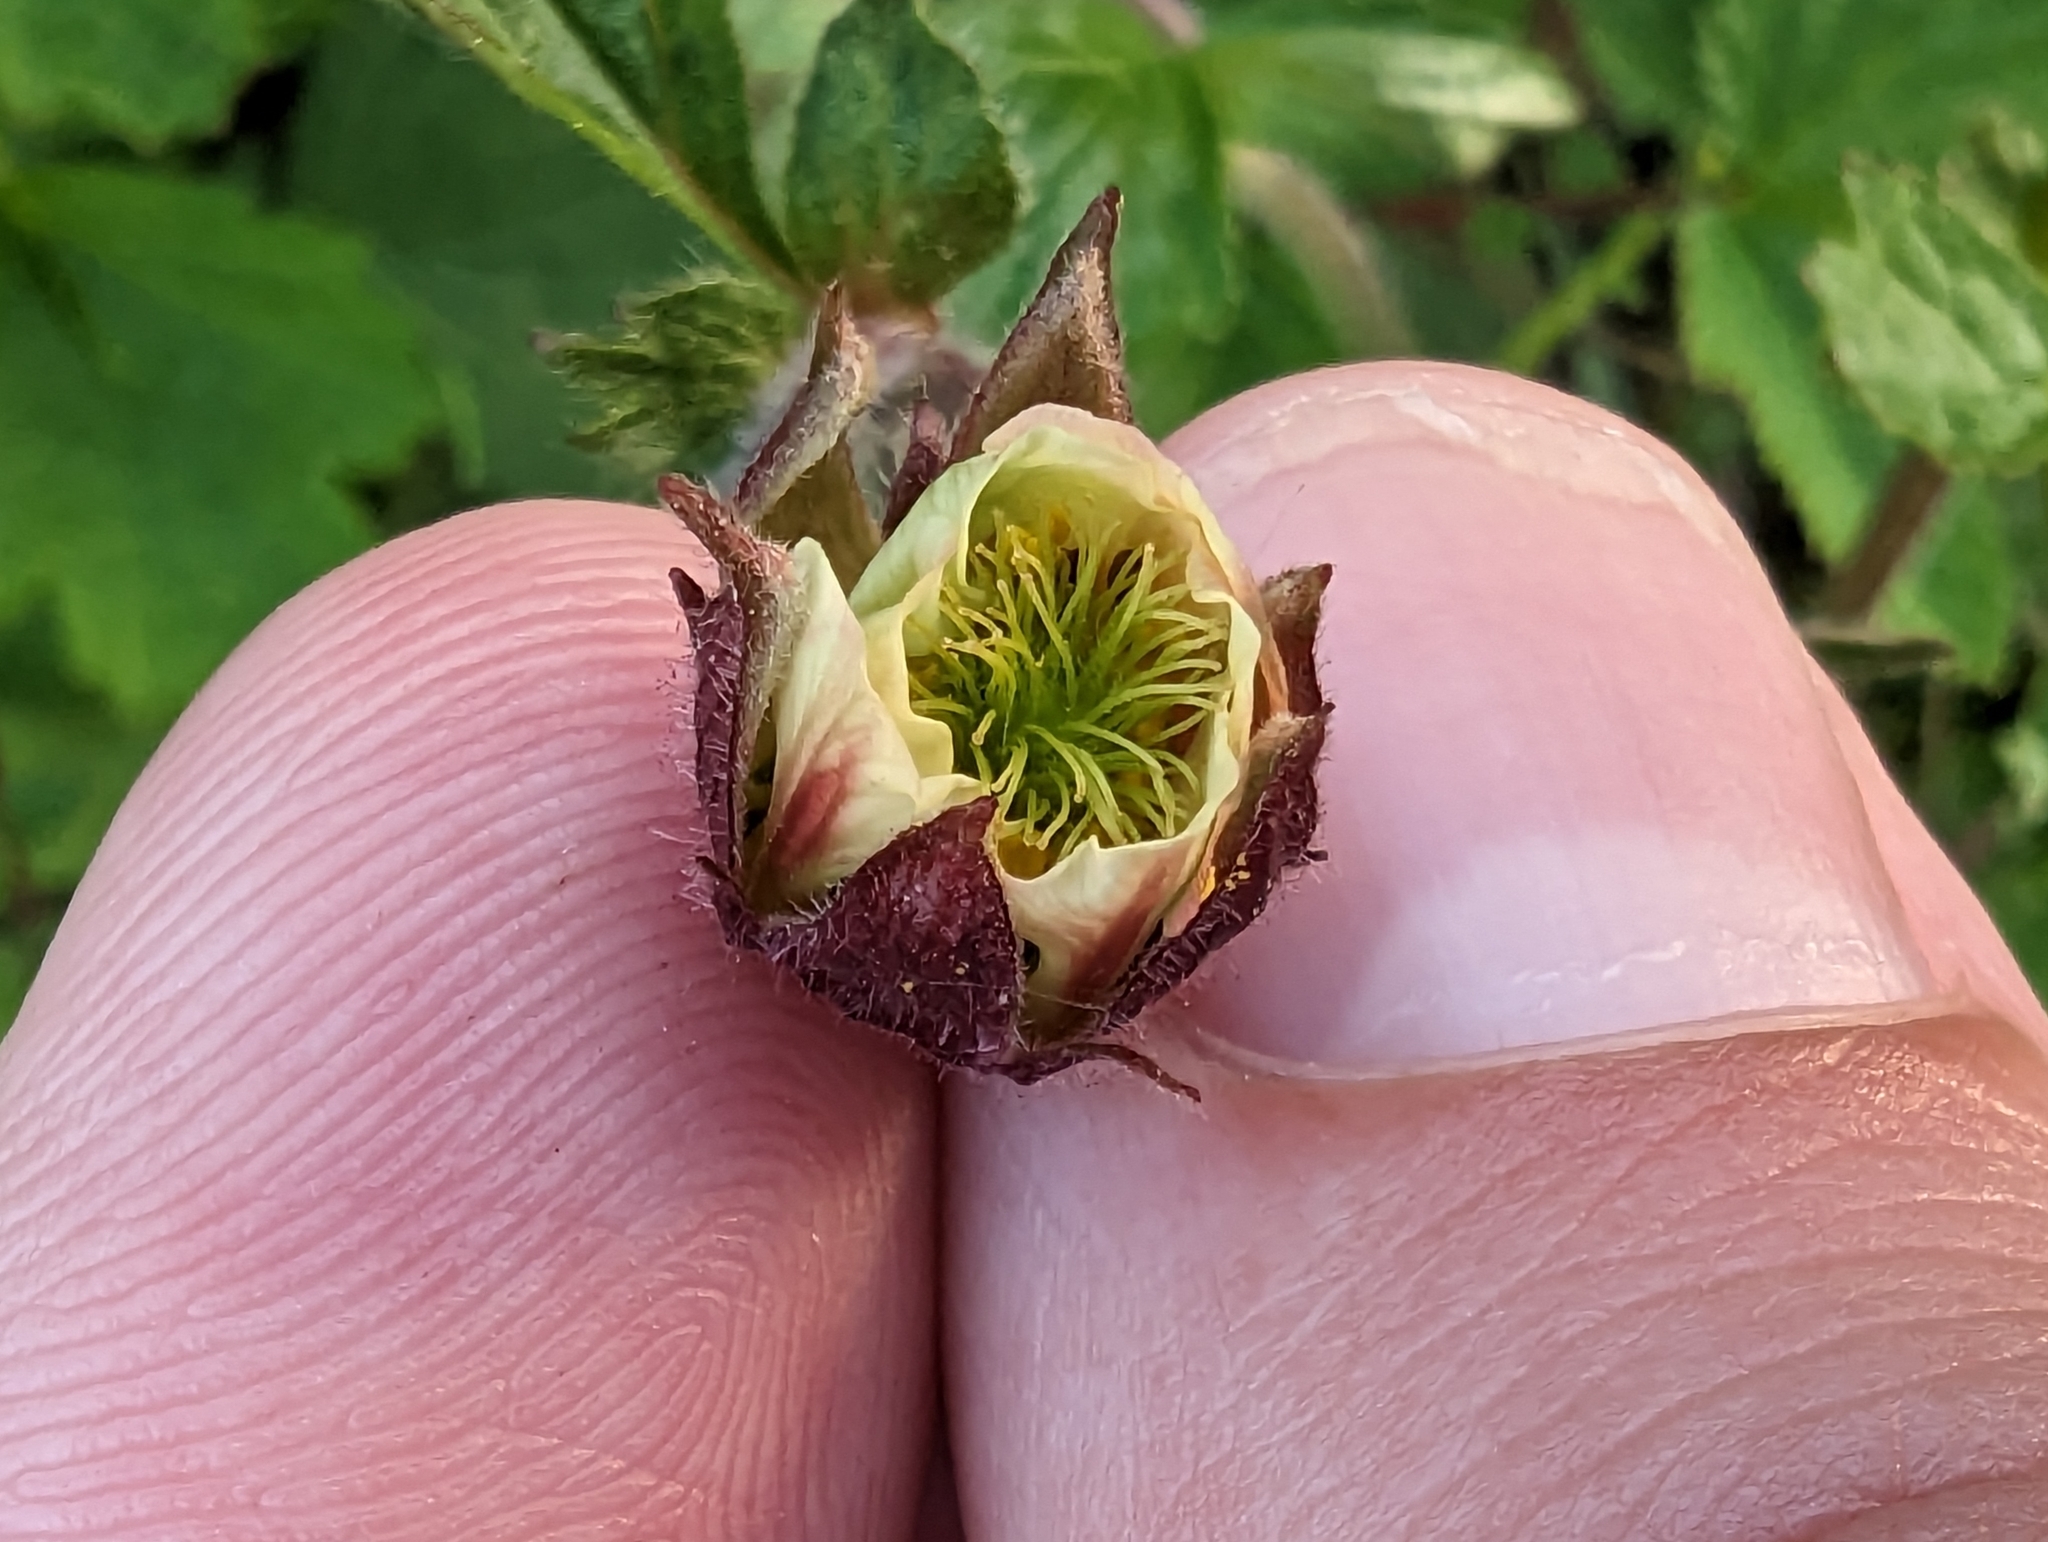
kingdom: Plantae
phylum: Tracheophyta
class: Magnoliopsida
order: Rosales
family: Rosaceae
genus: Geum
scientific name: Geum rivale
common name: Water avens
